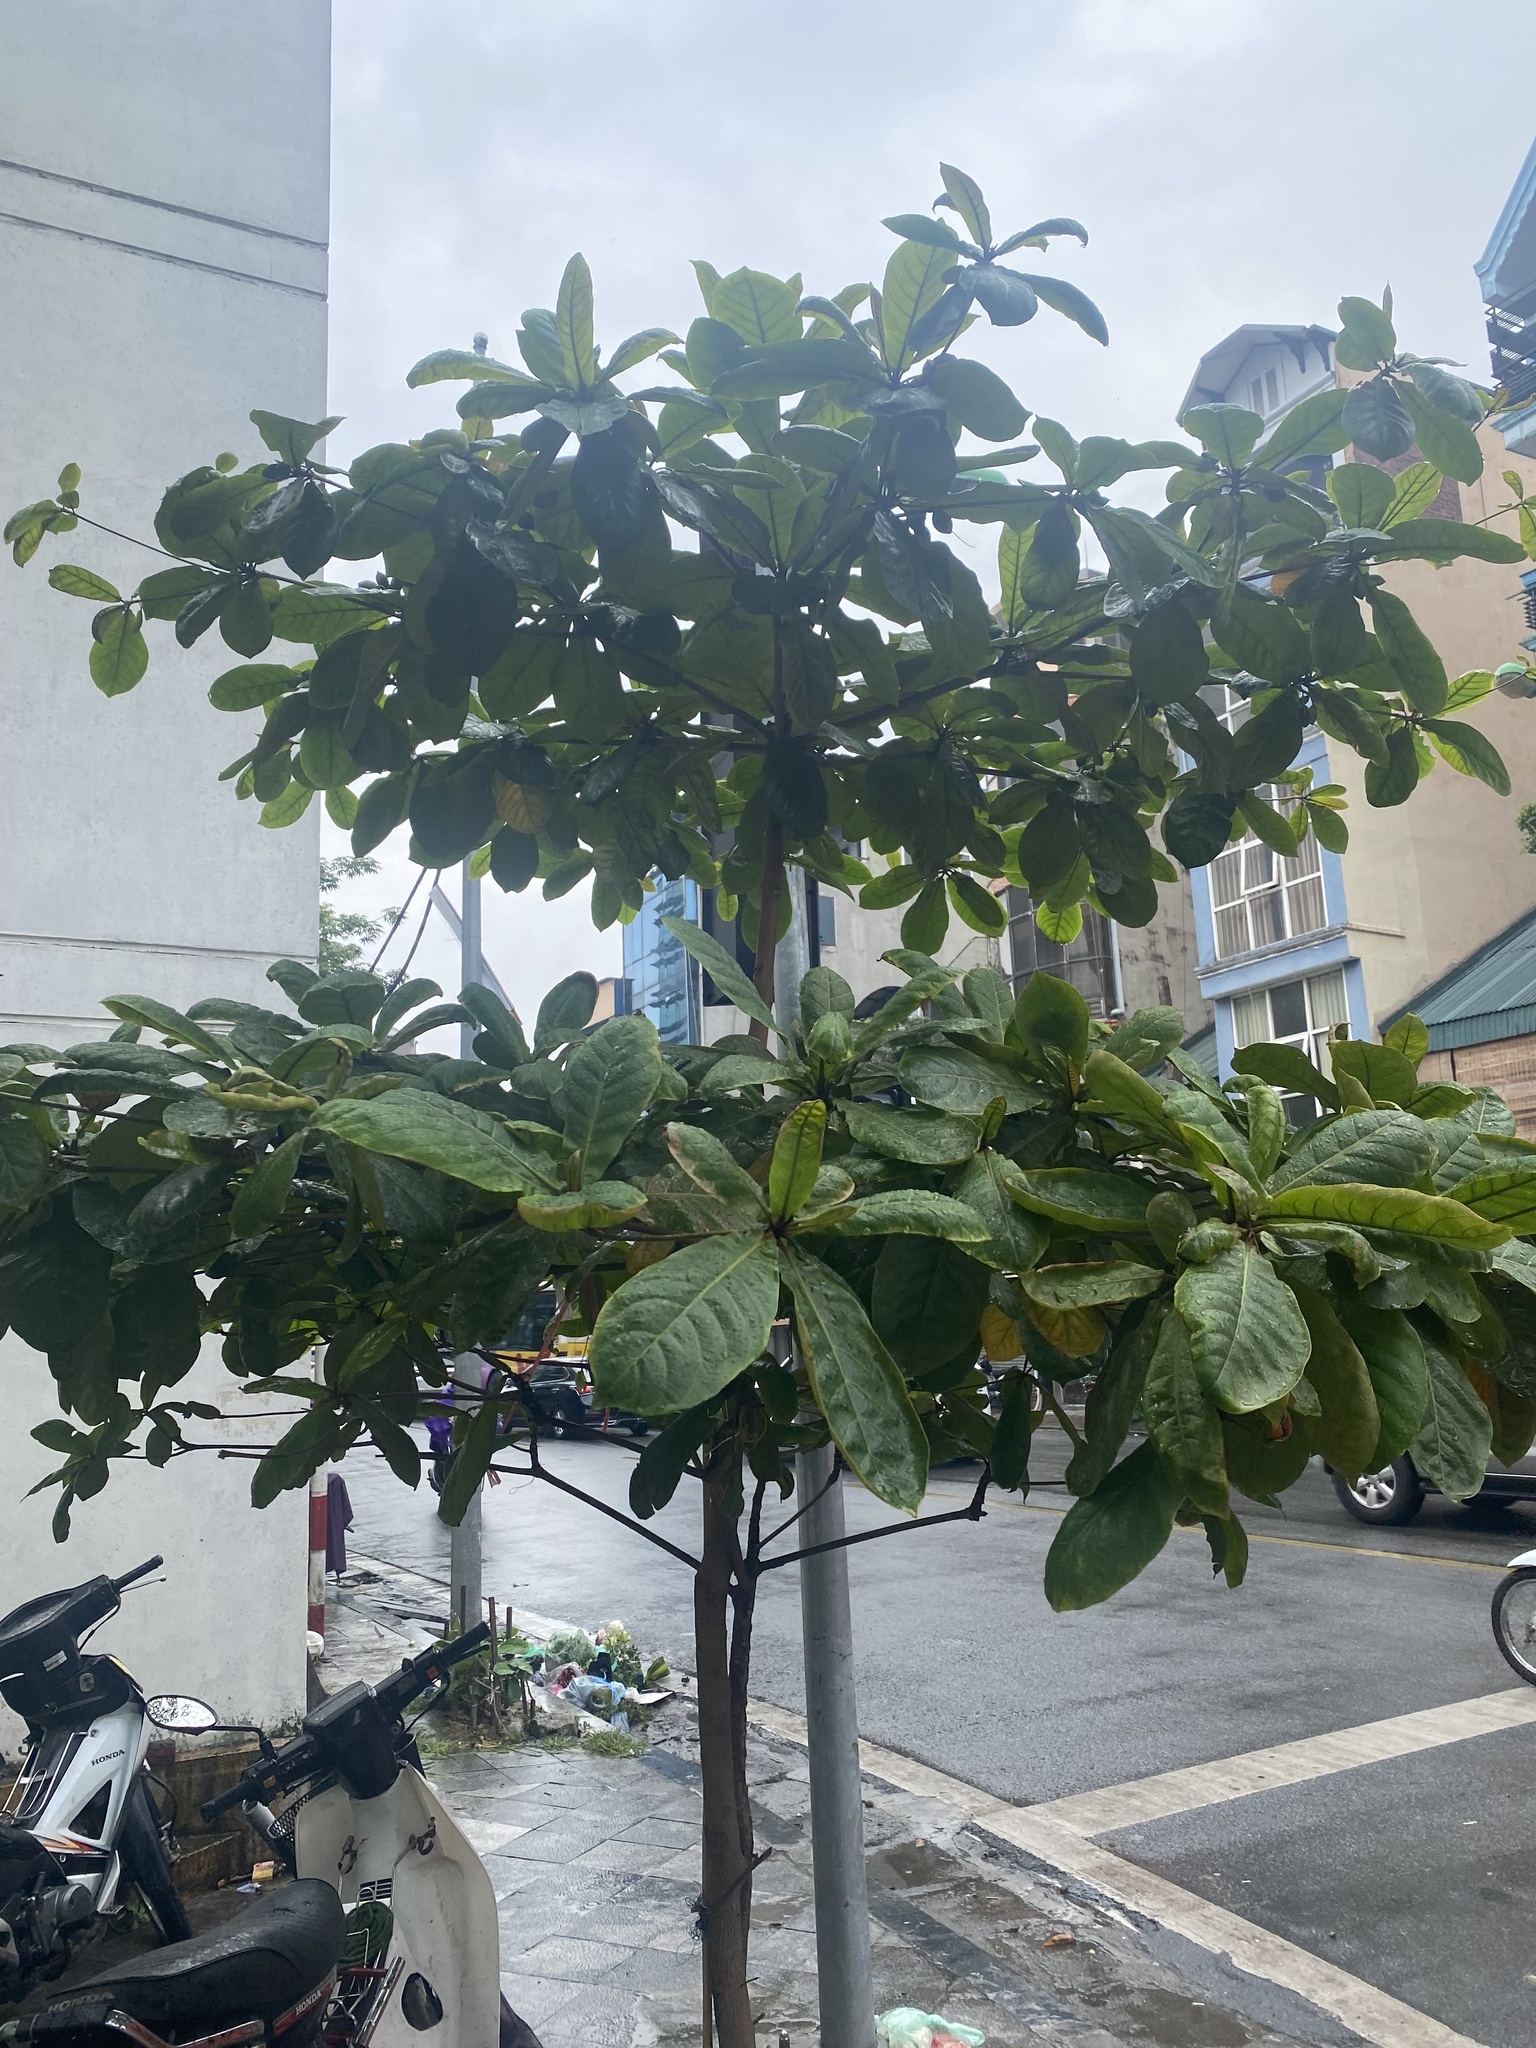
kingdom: Plantae
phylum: Tracheophyta
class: Magnoliopsida
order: Myrtales
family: Combretaceae
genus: Terminalia
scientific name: Terminalia catappa
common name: Tropical almond
